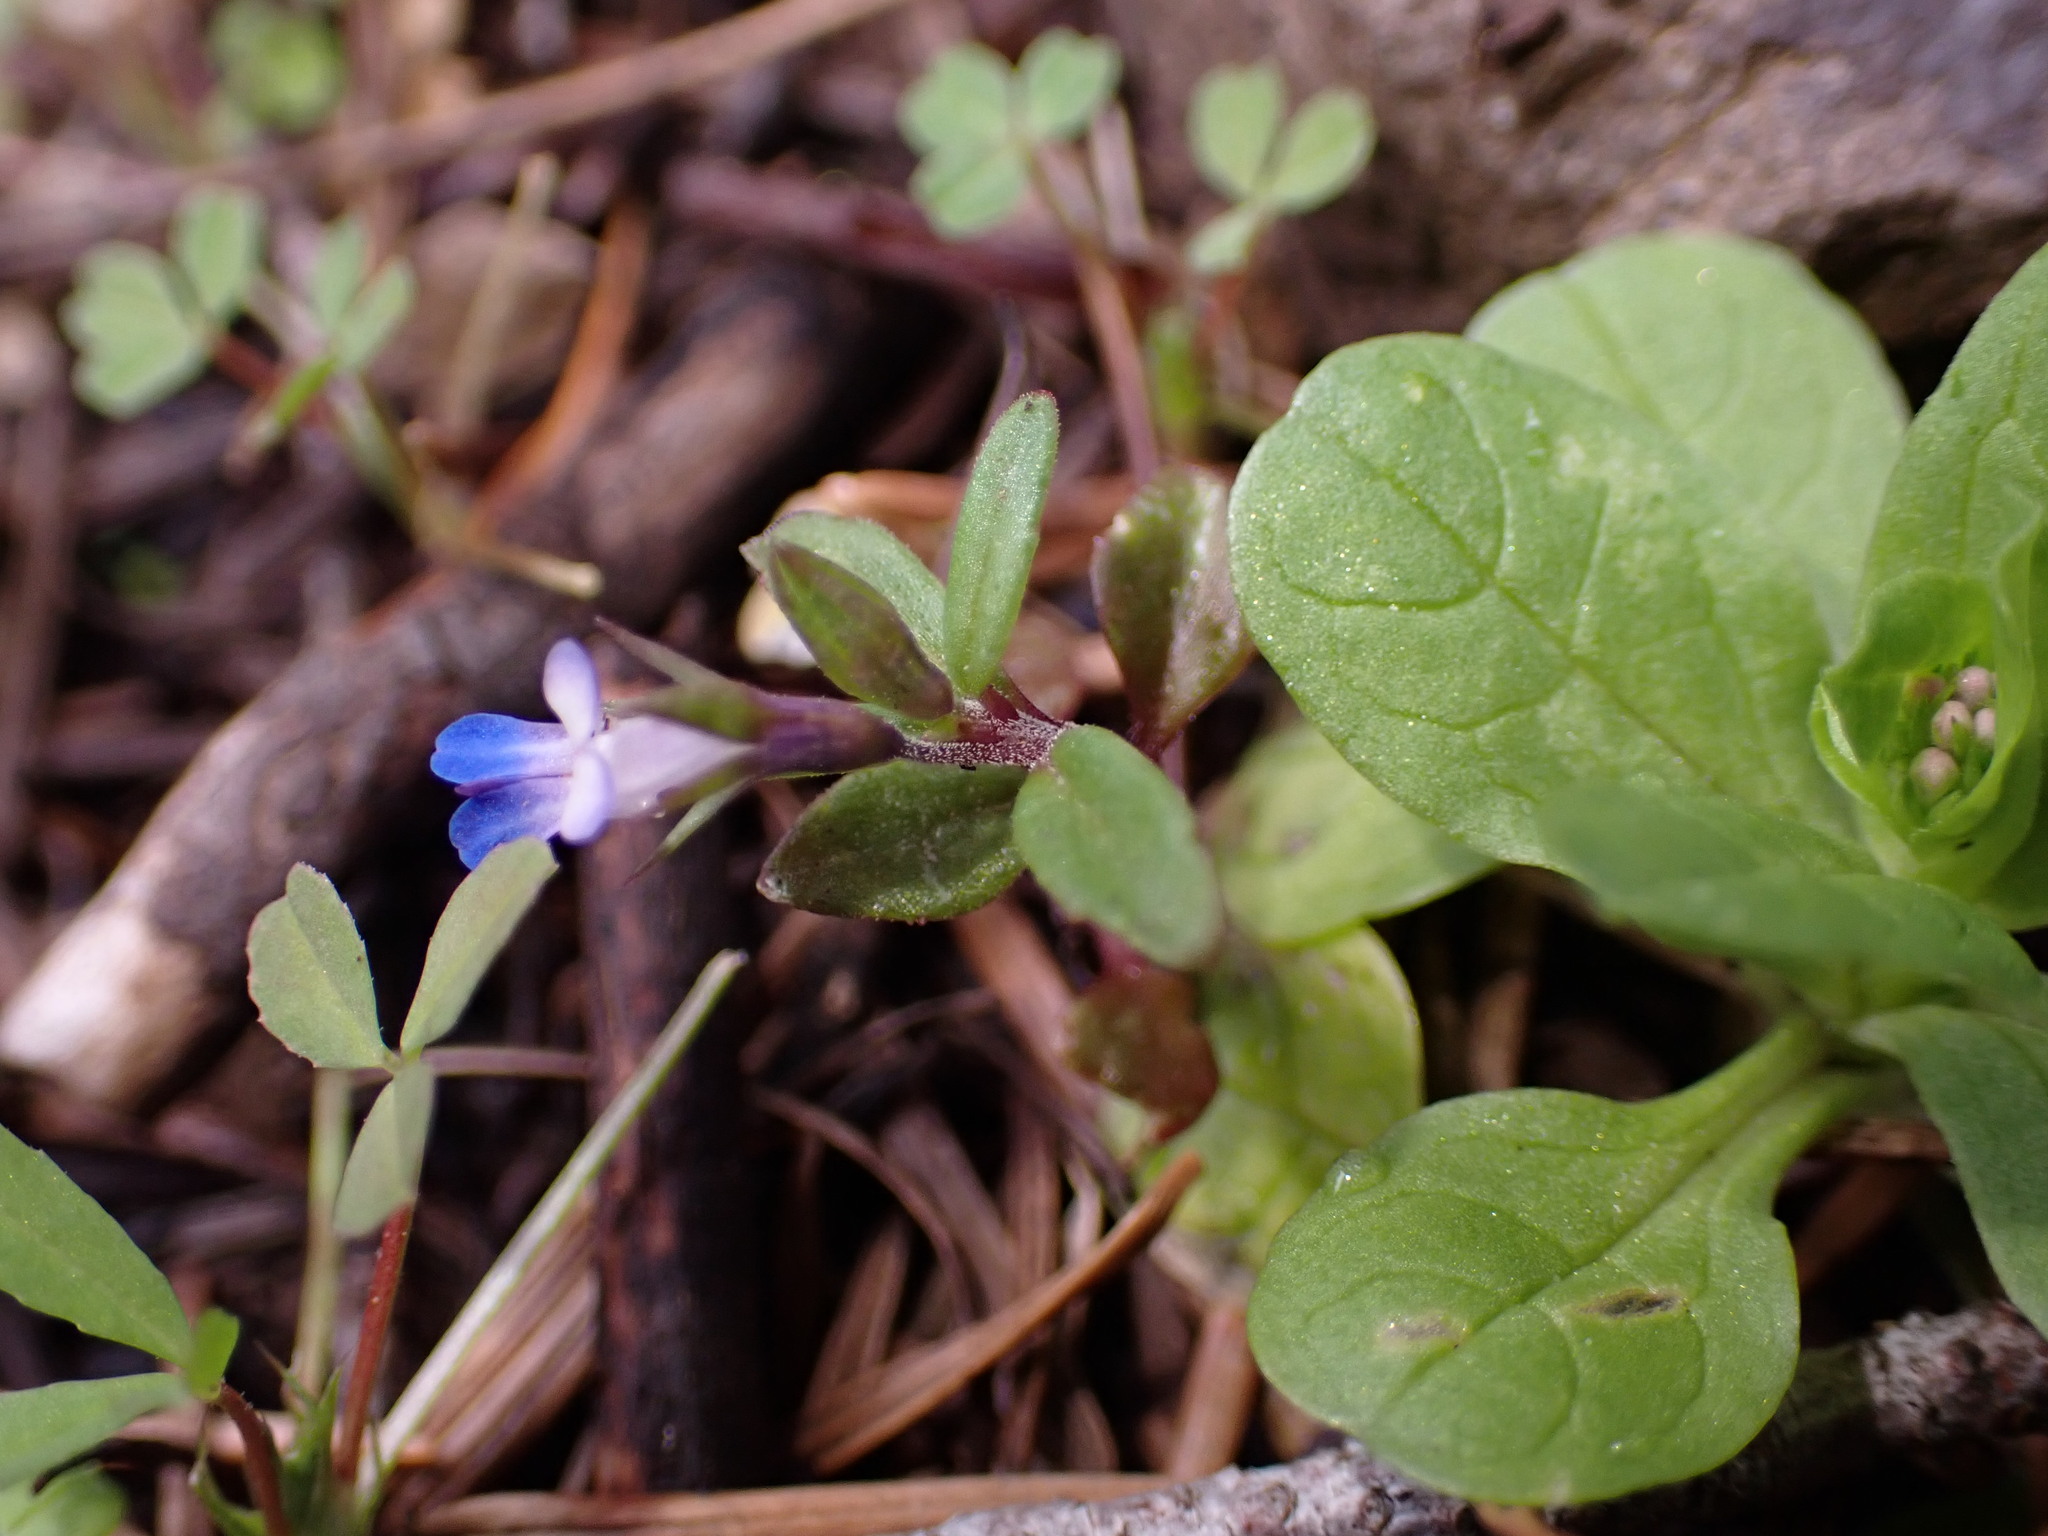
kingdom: Plantae
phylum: Tracheophyta
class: Magnoliopsida
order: Lamiales
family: Plantaginaceae
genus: Collinsia
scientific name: Collinsia parviflora
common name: Blue-lips
